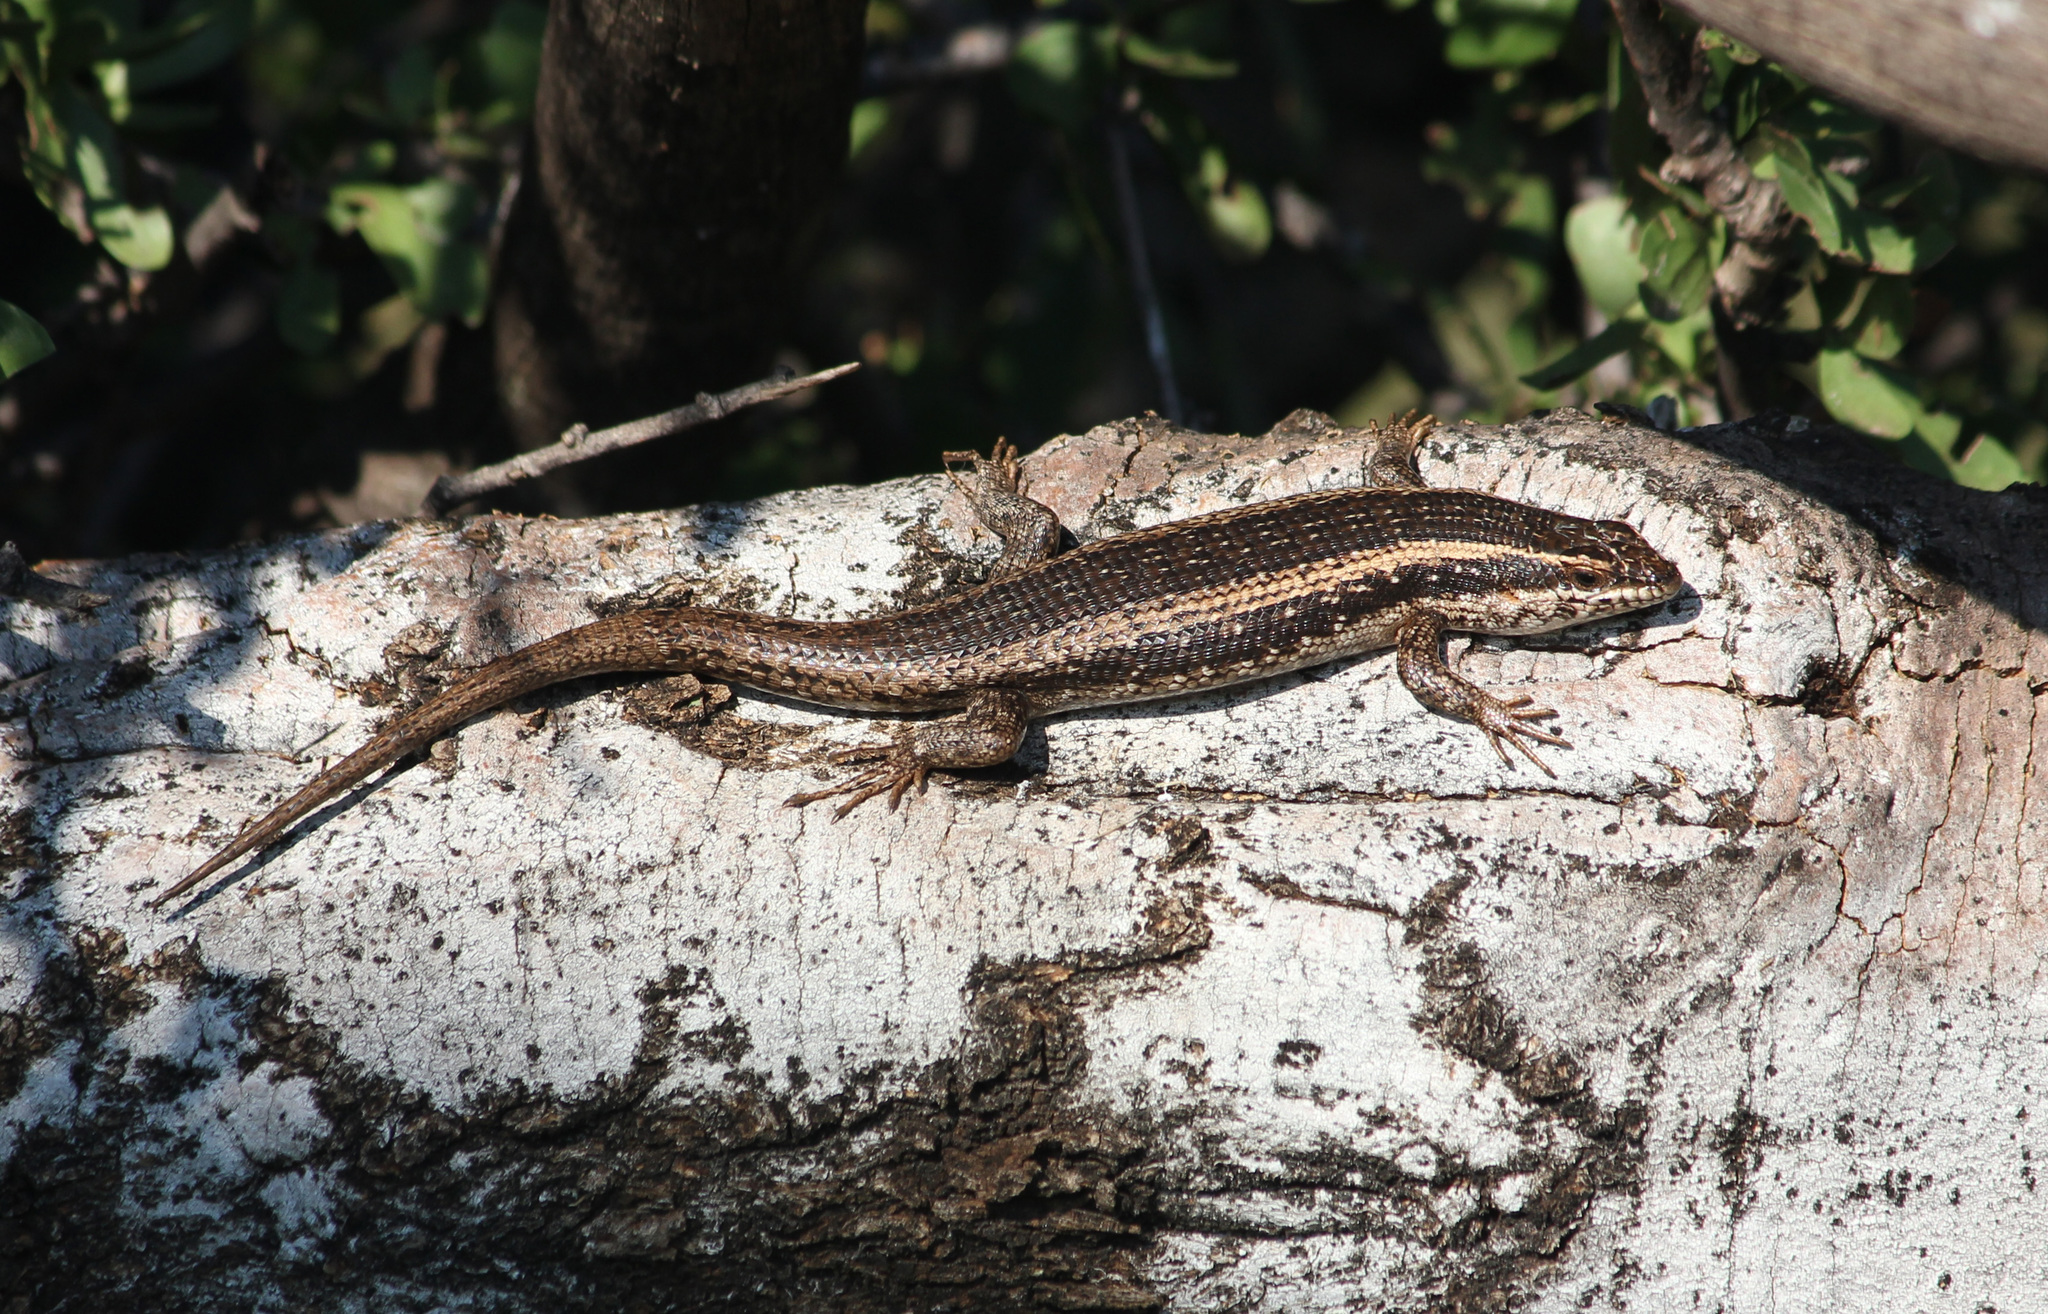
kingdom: Animalia
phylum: Chordata
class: Squamata
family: Scincidae
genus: Trachylepis
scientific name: Trachylepis spilogaster
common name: Kalahari tree skink
